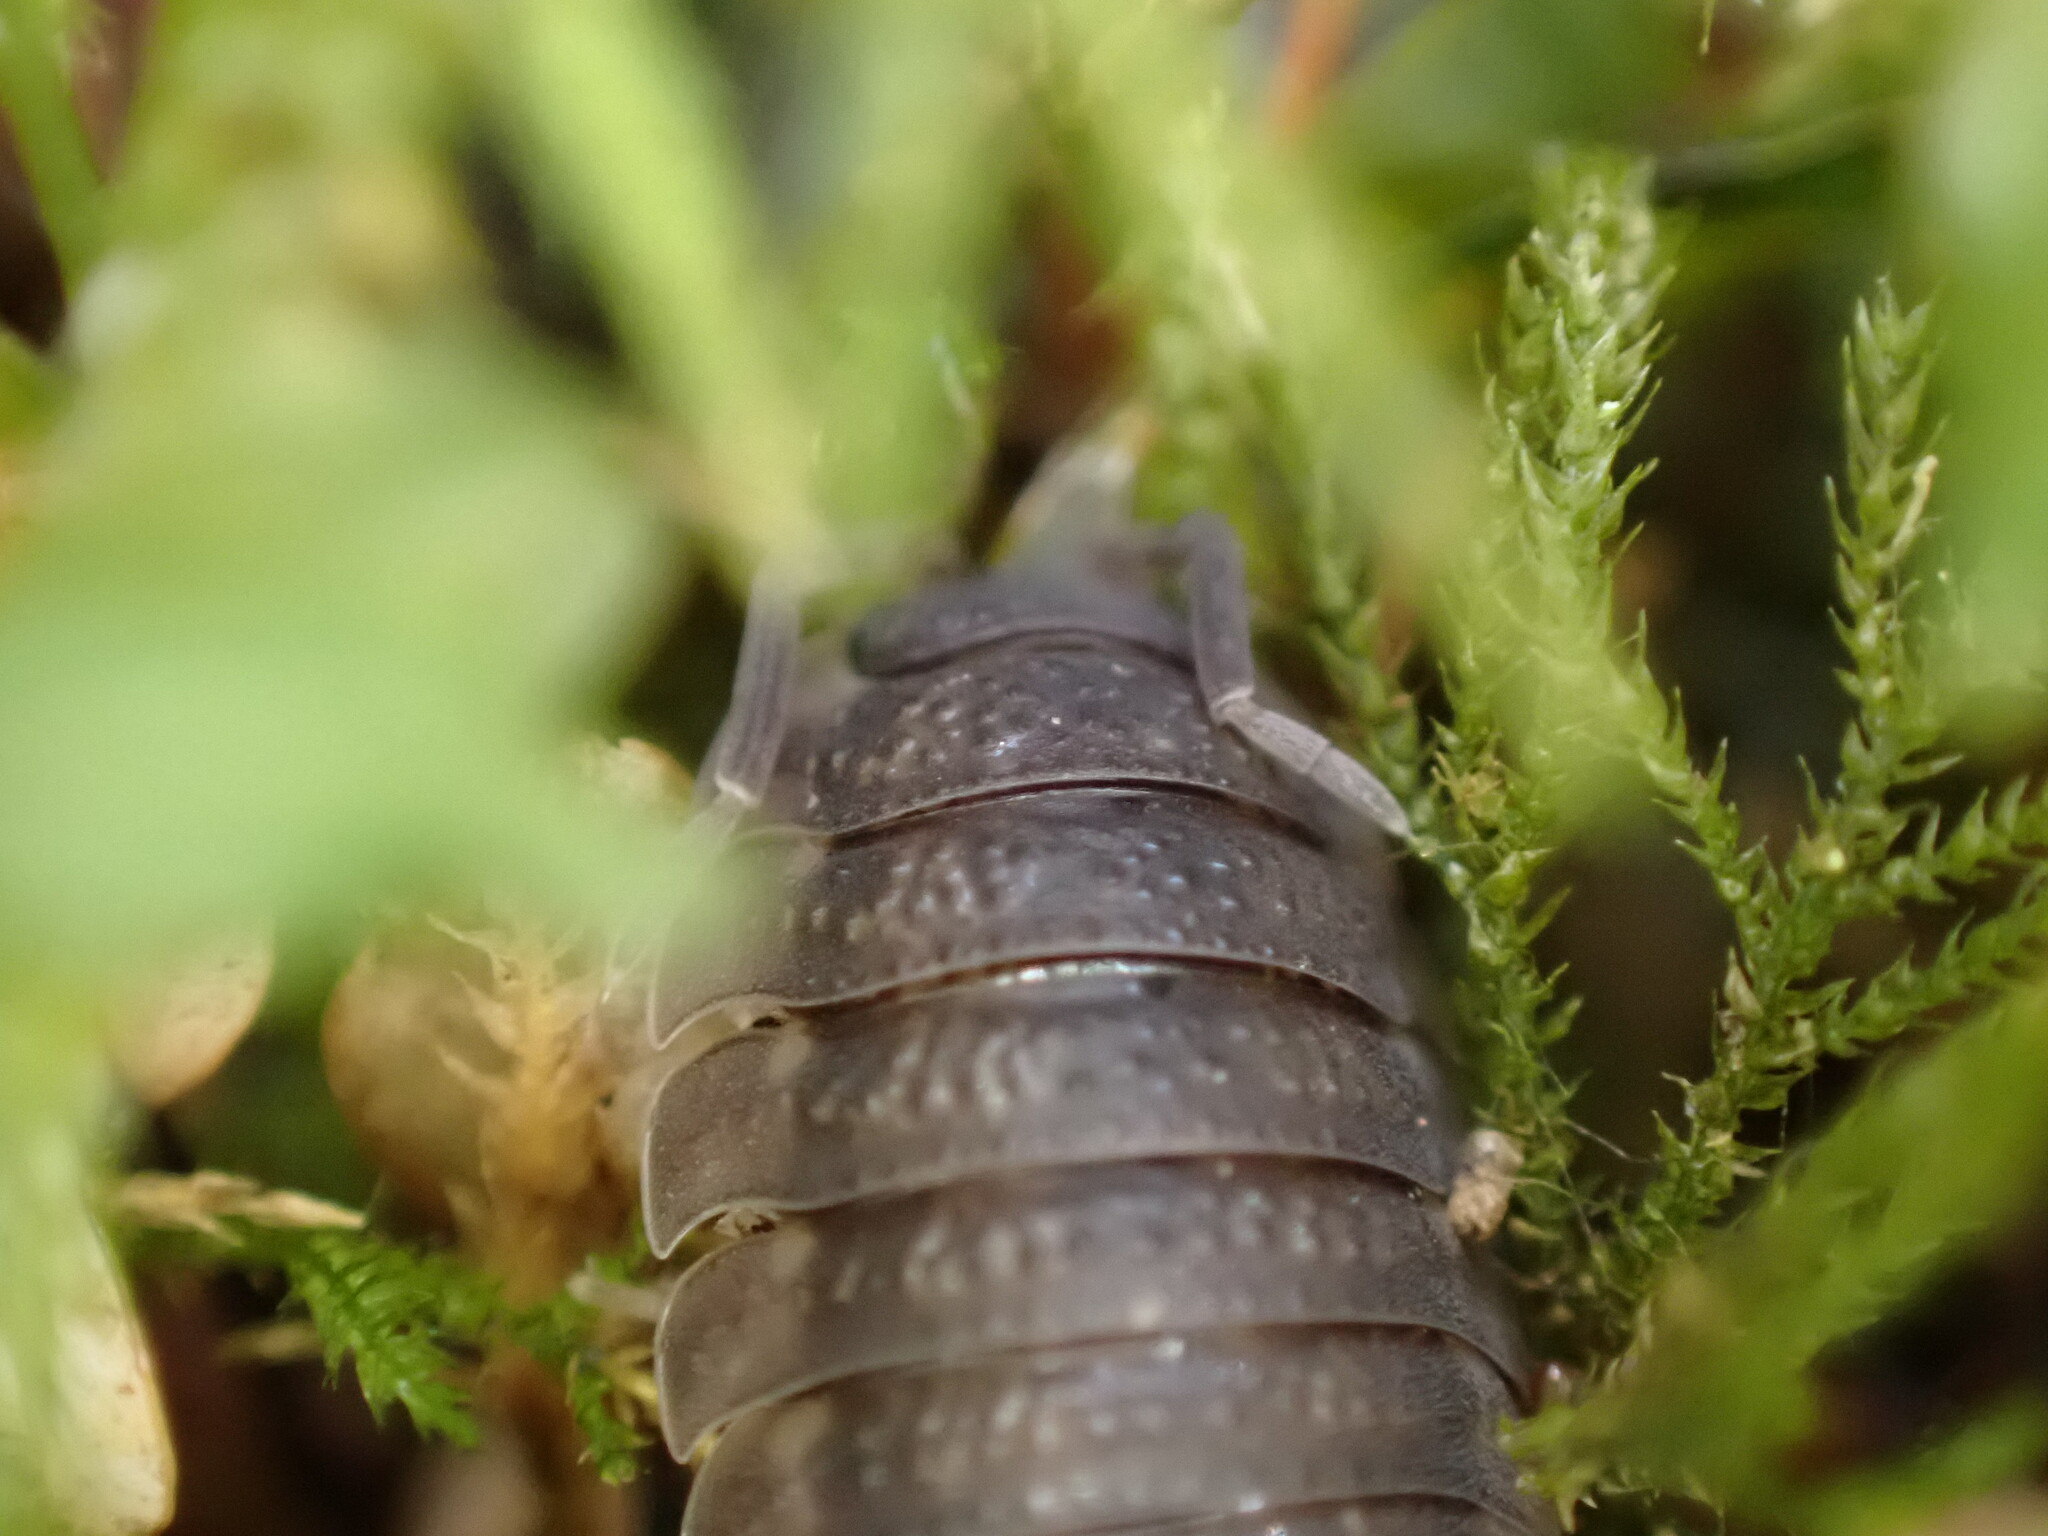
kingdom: Animalia
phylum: Arthropoda
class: Malacostraca
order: Isopoda
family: Porcellionidae
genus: Porcellio
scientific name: Porcellio scaber
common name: Common rough woodlouse
